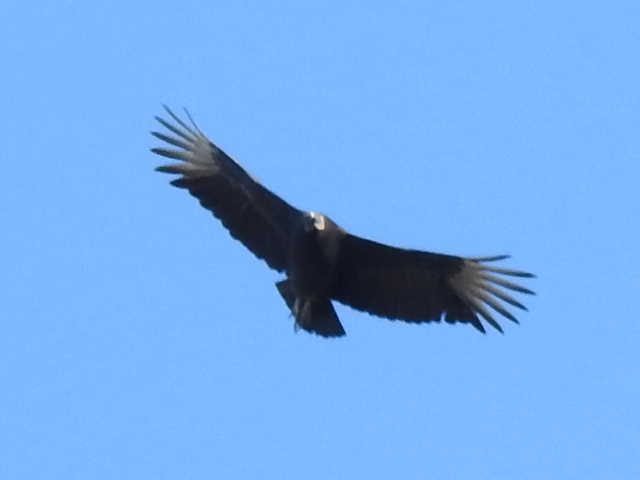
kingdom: Animalia
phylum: Chordata
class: Aves
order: Accipitriformes
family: Cathartidae
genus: Coragyps
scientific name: Coragyps atratus
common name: Black vulture
